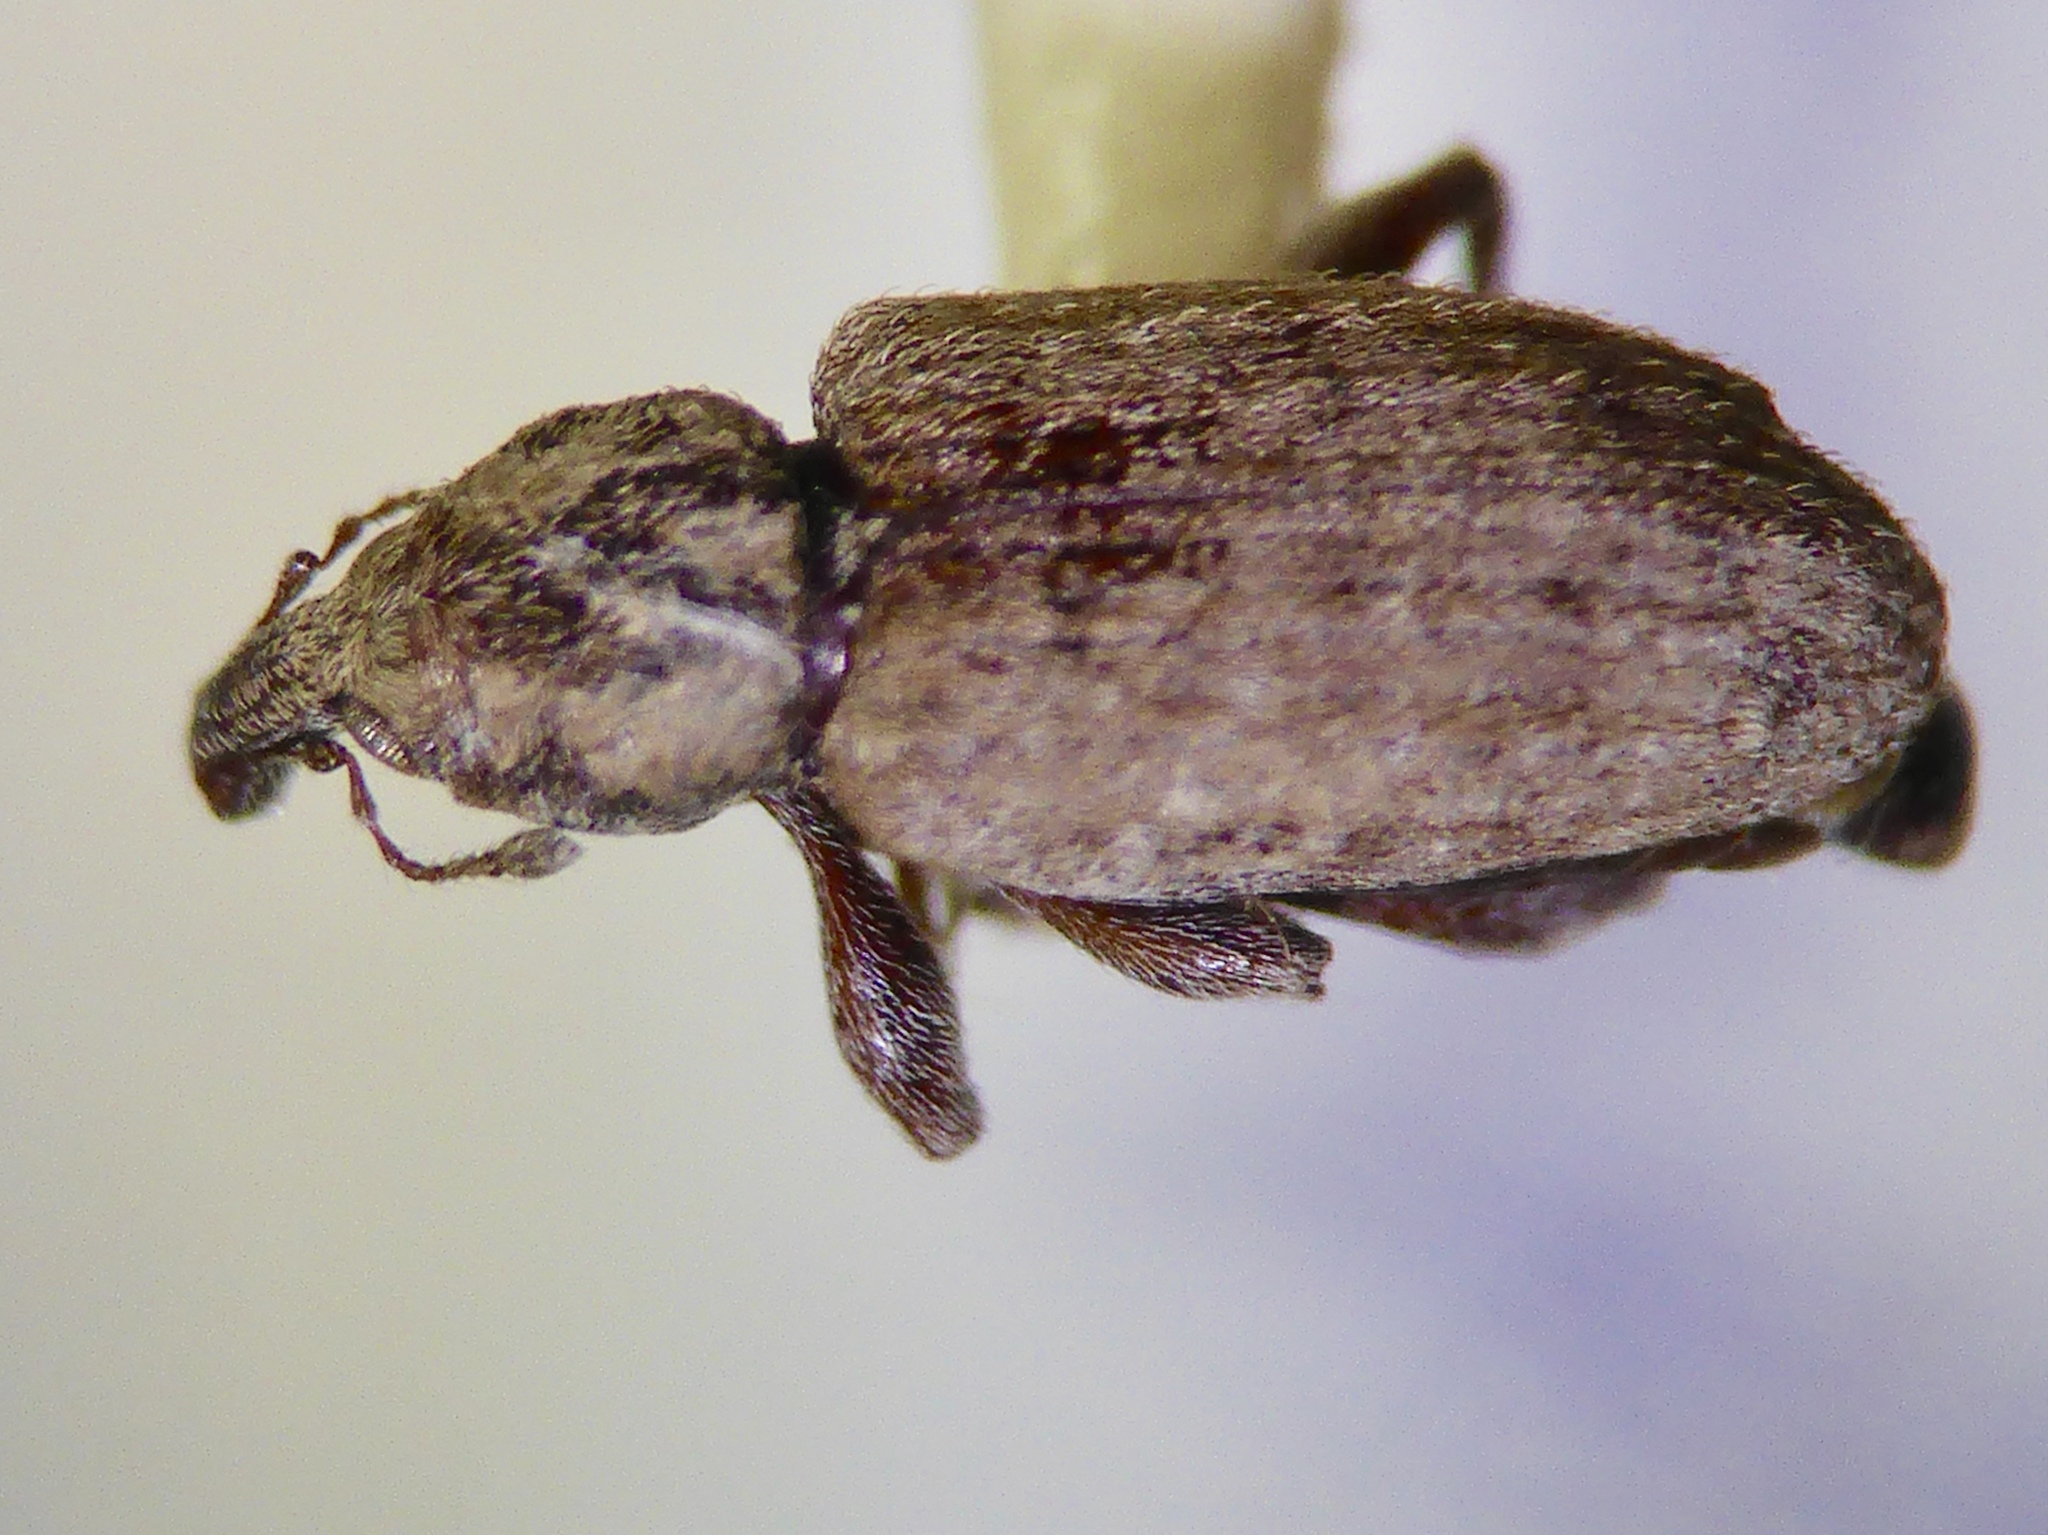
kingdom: Animalia
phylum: Arthropoda
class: Insecta
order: Coleoptera
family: Curculionidae
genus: Steriphus
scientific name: Steriphus diversipes
